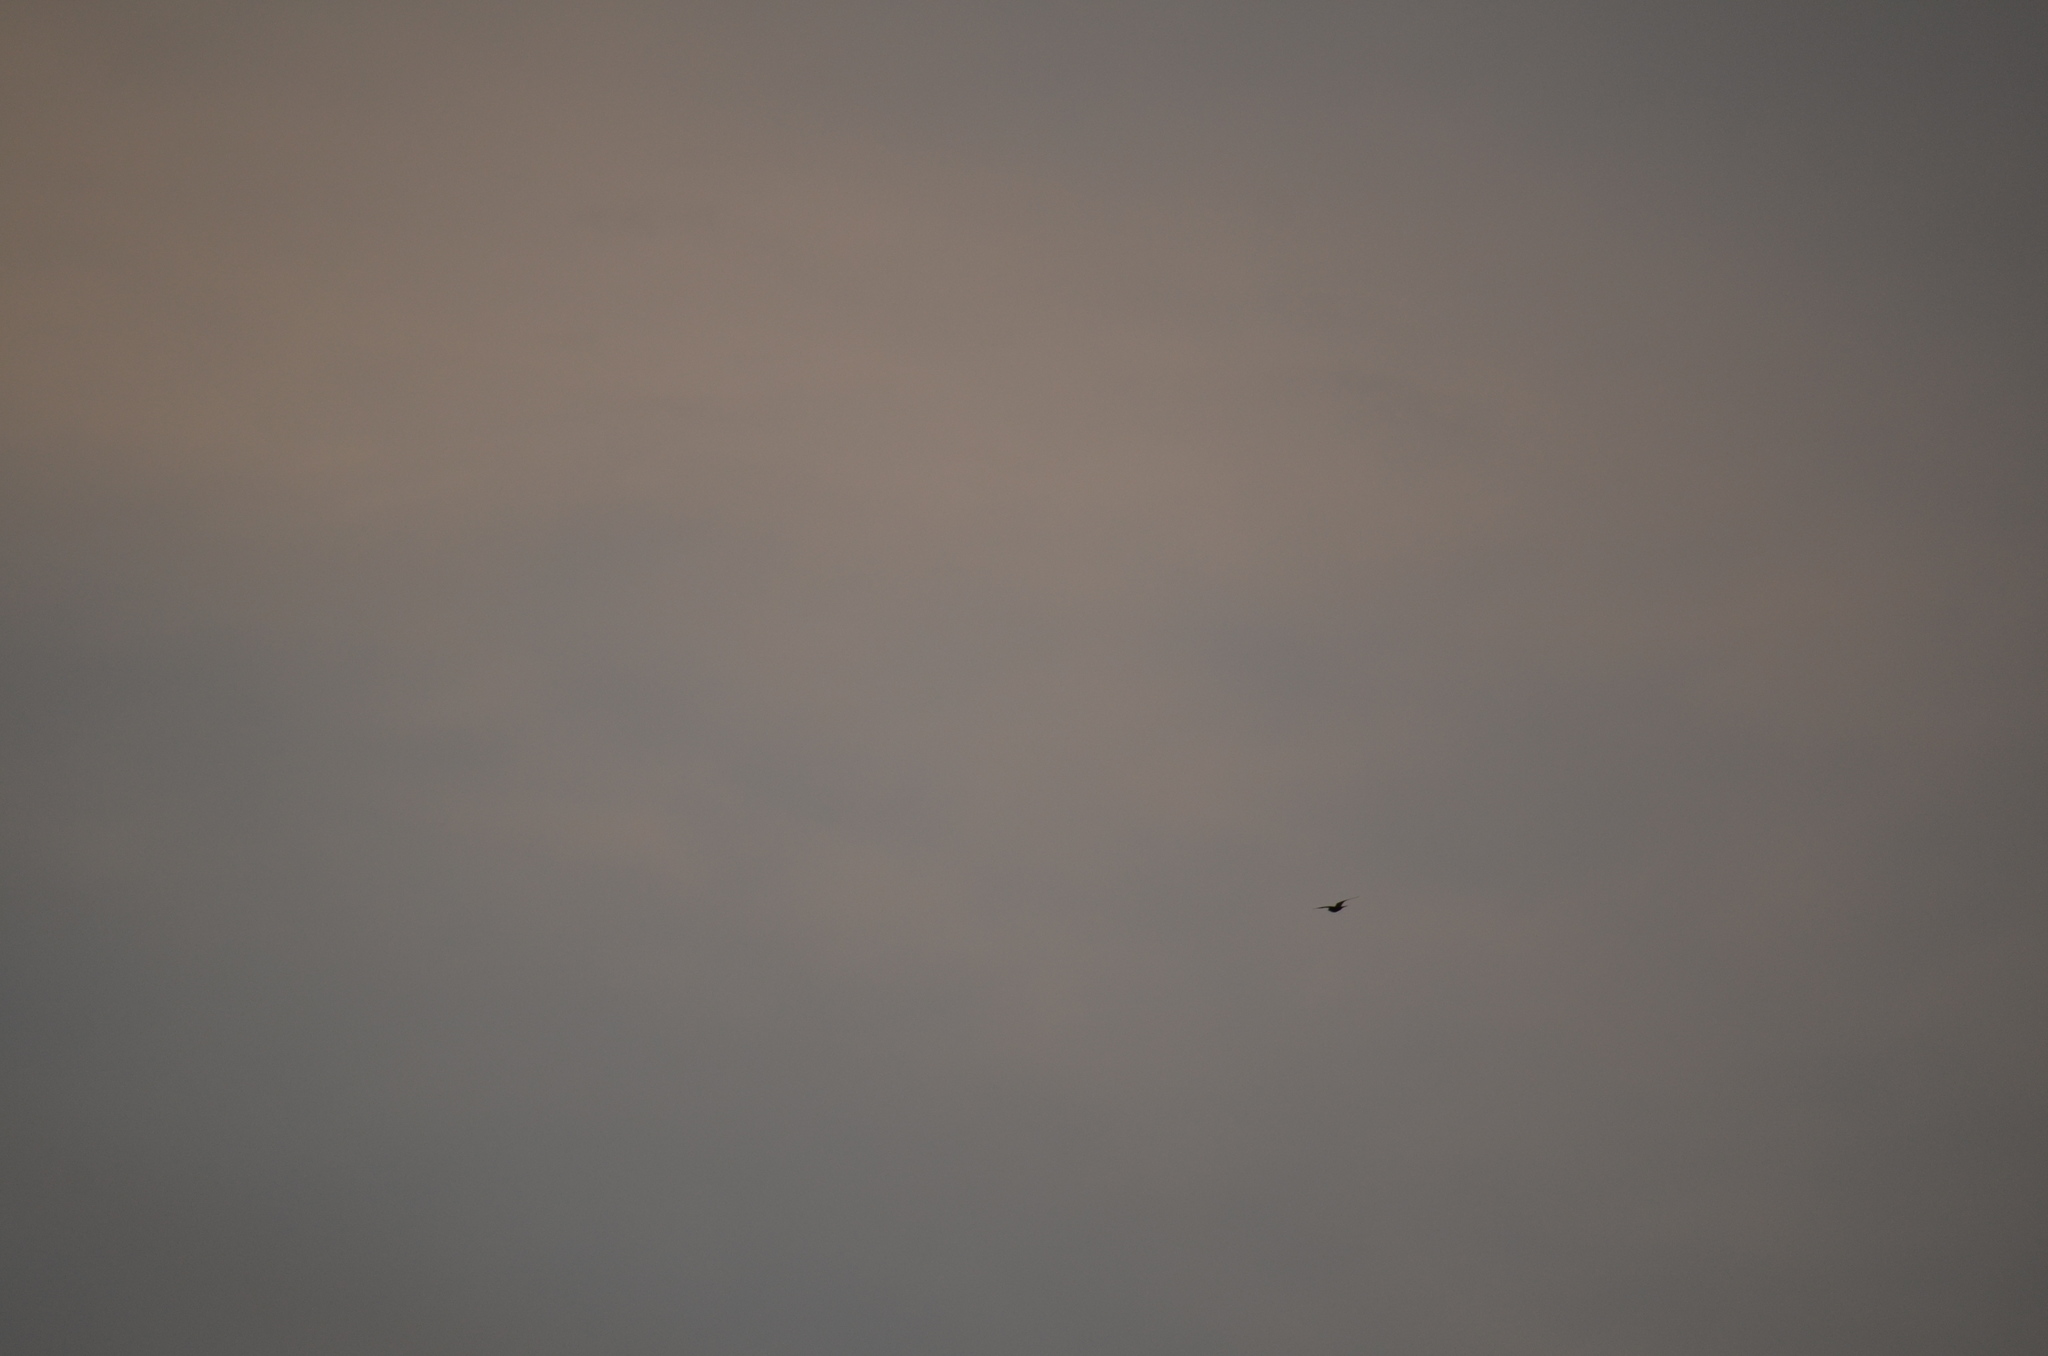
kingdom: Animalia
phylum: Chordata
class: Aves
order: Caprimulgiformes
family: Caprimulgidae
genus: Chordeiles
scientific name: Chordeiles minor
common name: Common nighthawk
